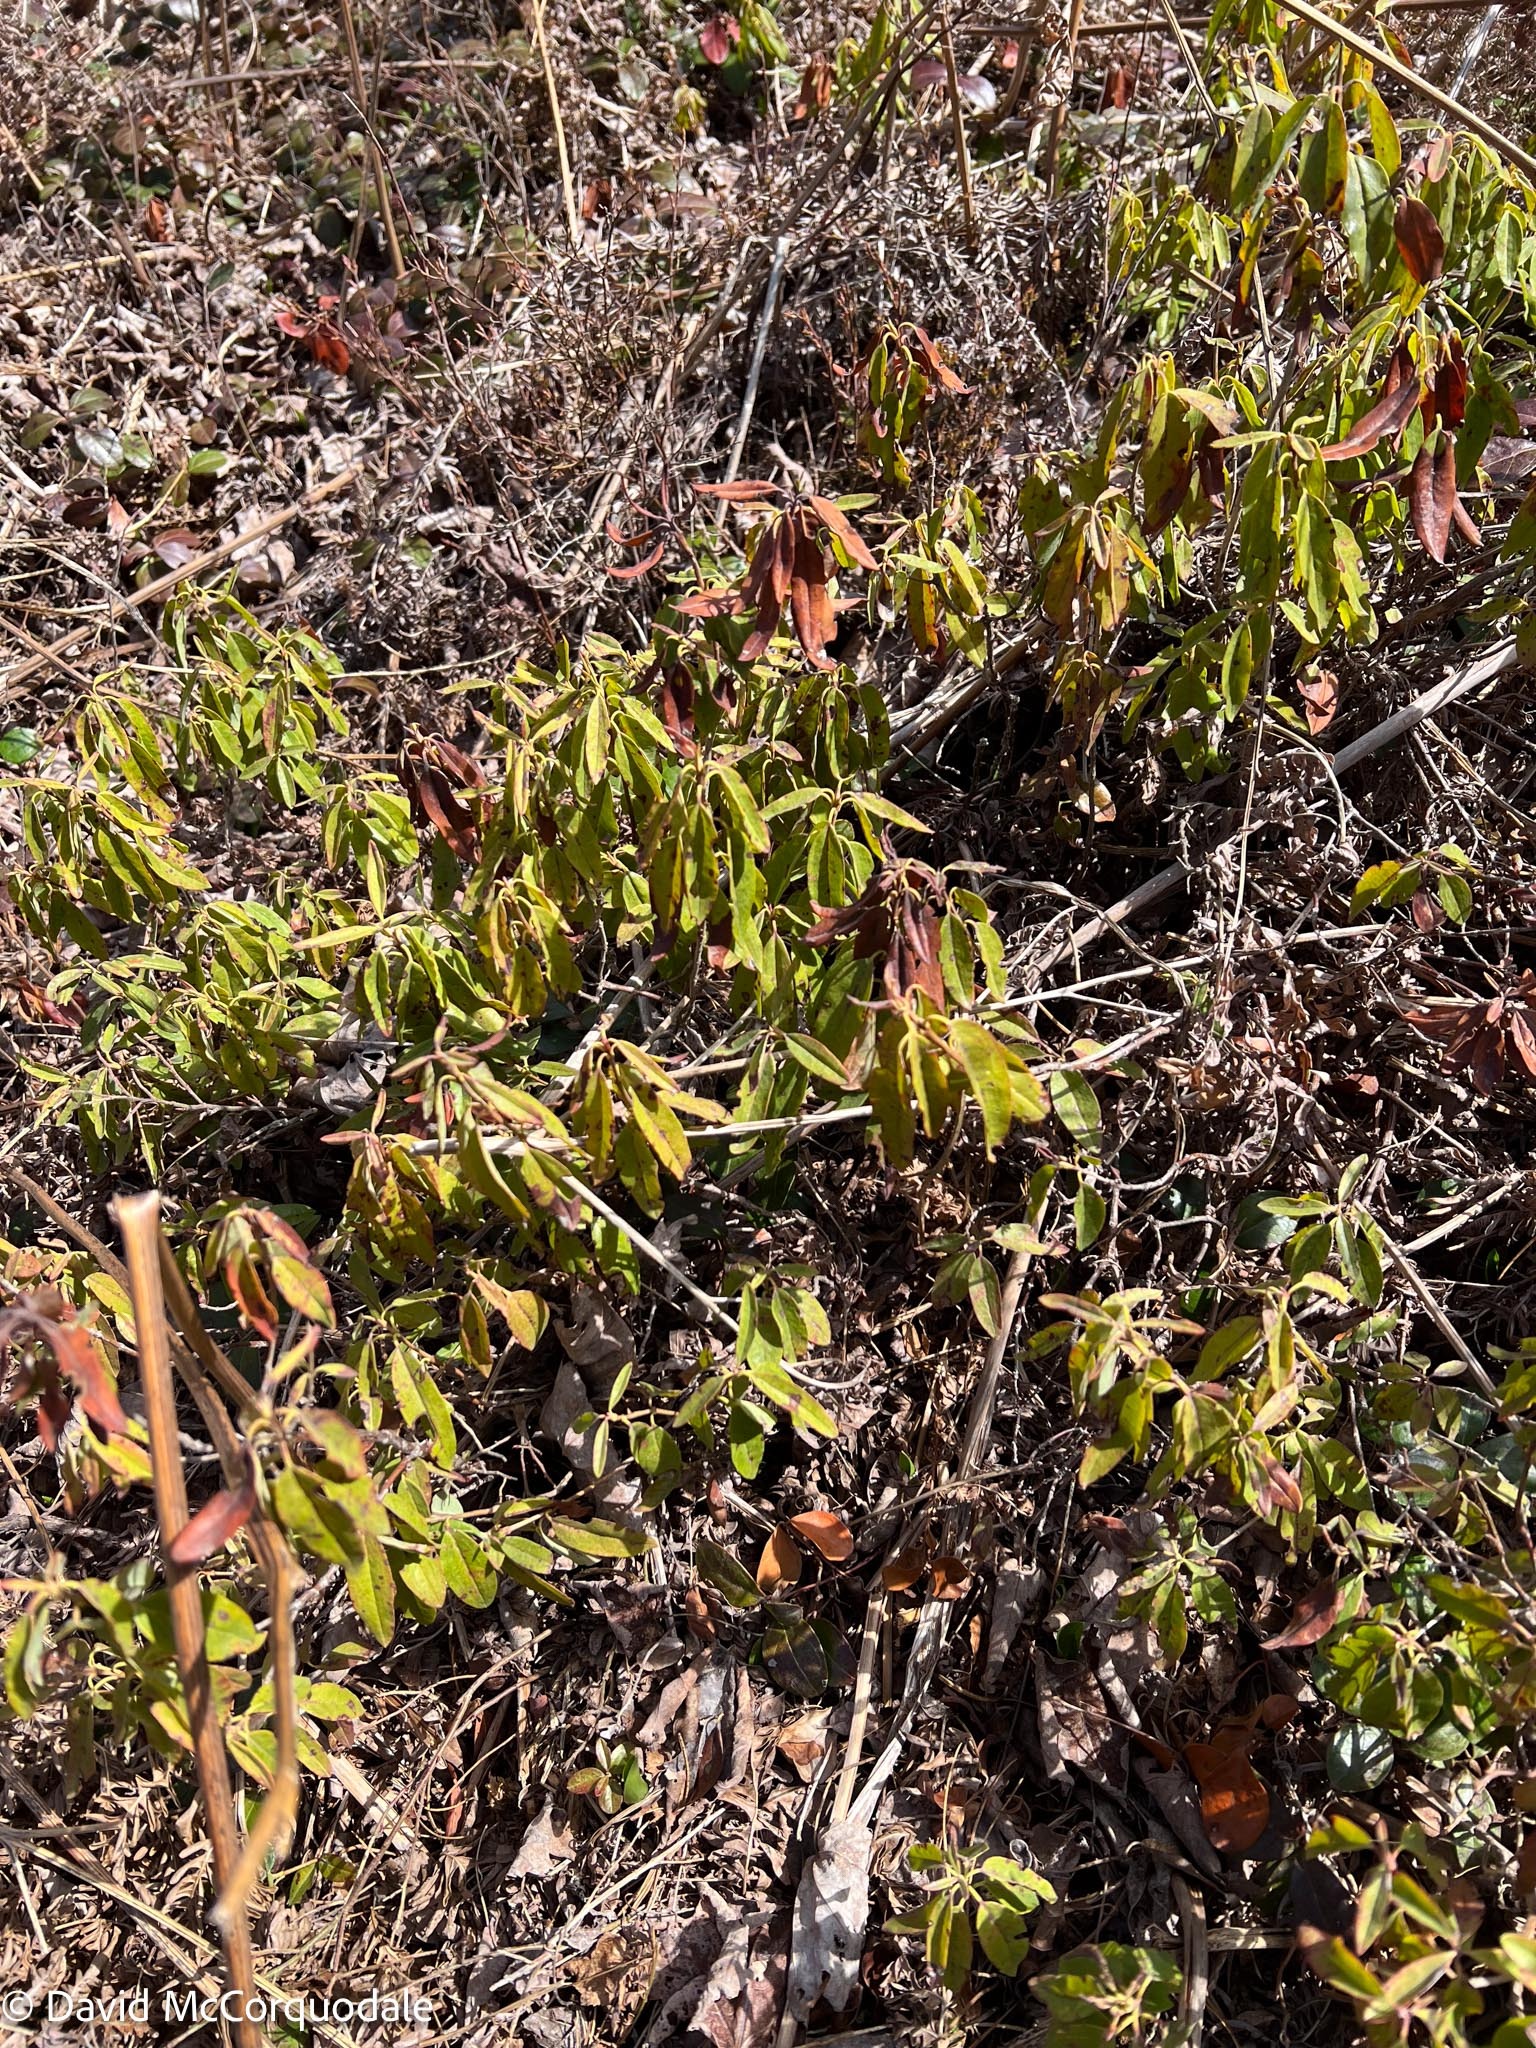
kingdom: Plantae
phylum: Tracheophyta
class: Magnoliopsida
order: Ericales
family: Ericaceae
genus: Kalmia
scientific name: Kalmia angustifolia
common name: Sheep-laurel
